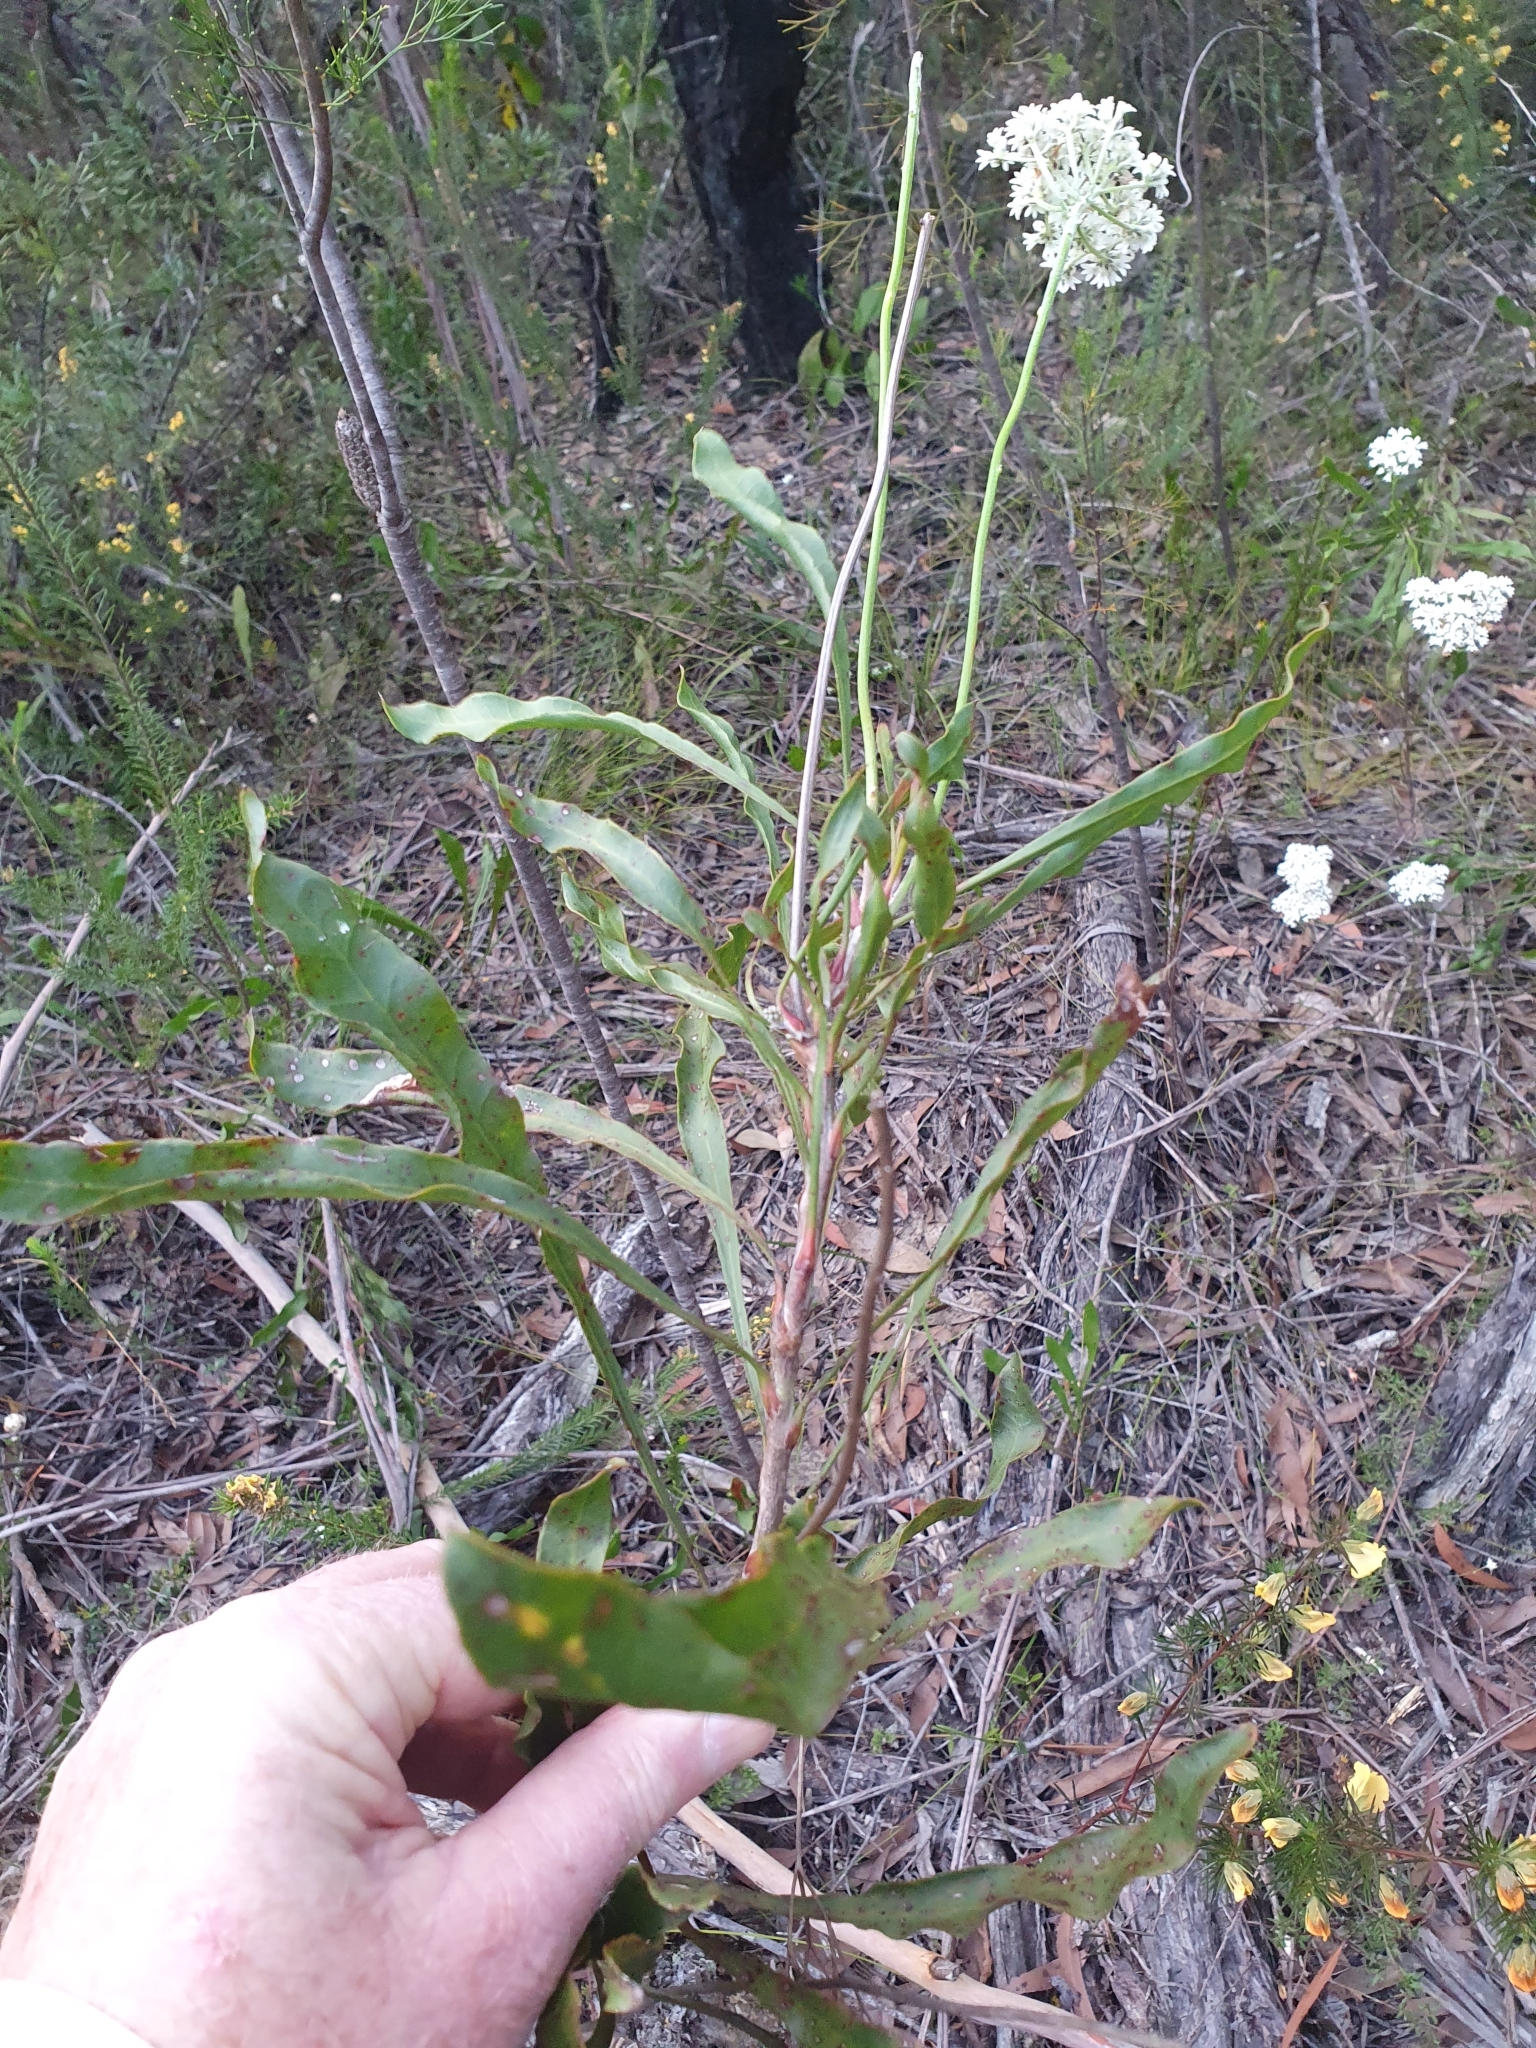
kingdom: Plantae
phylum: Tracheophyta
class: Magnoliopsida
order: Proteales
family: Proteaceae
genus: Conospermum
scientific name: Conospermum longifolium
